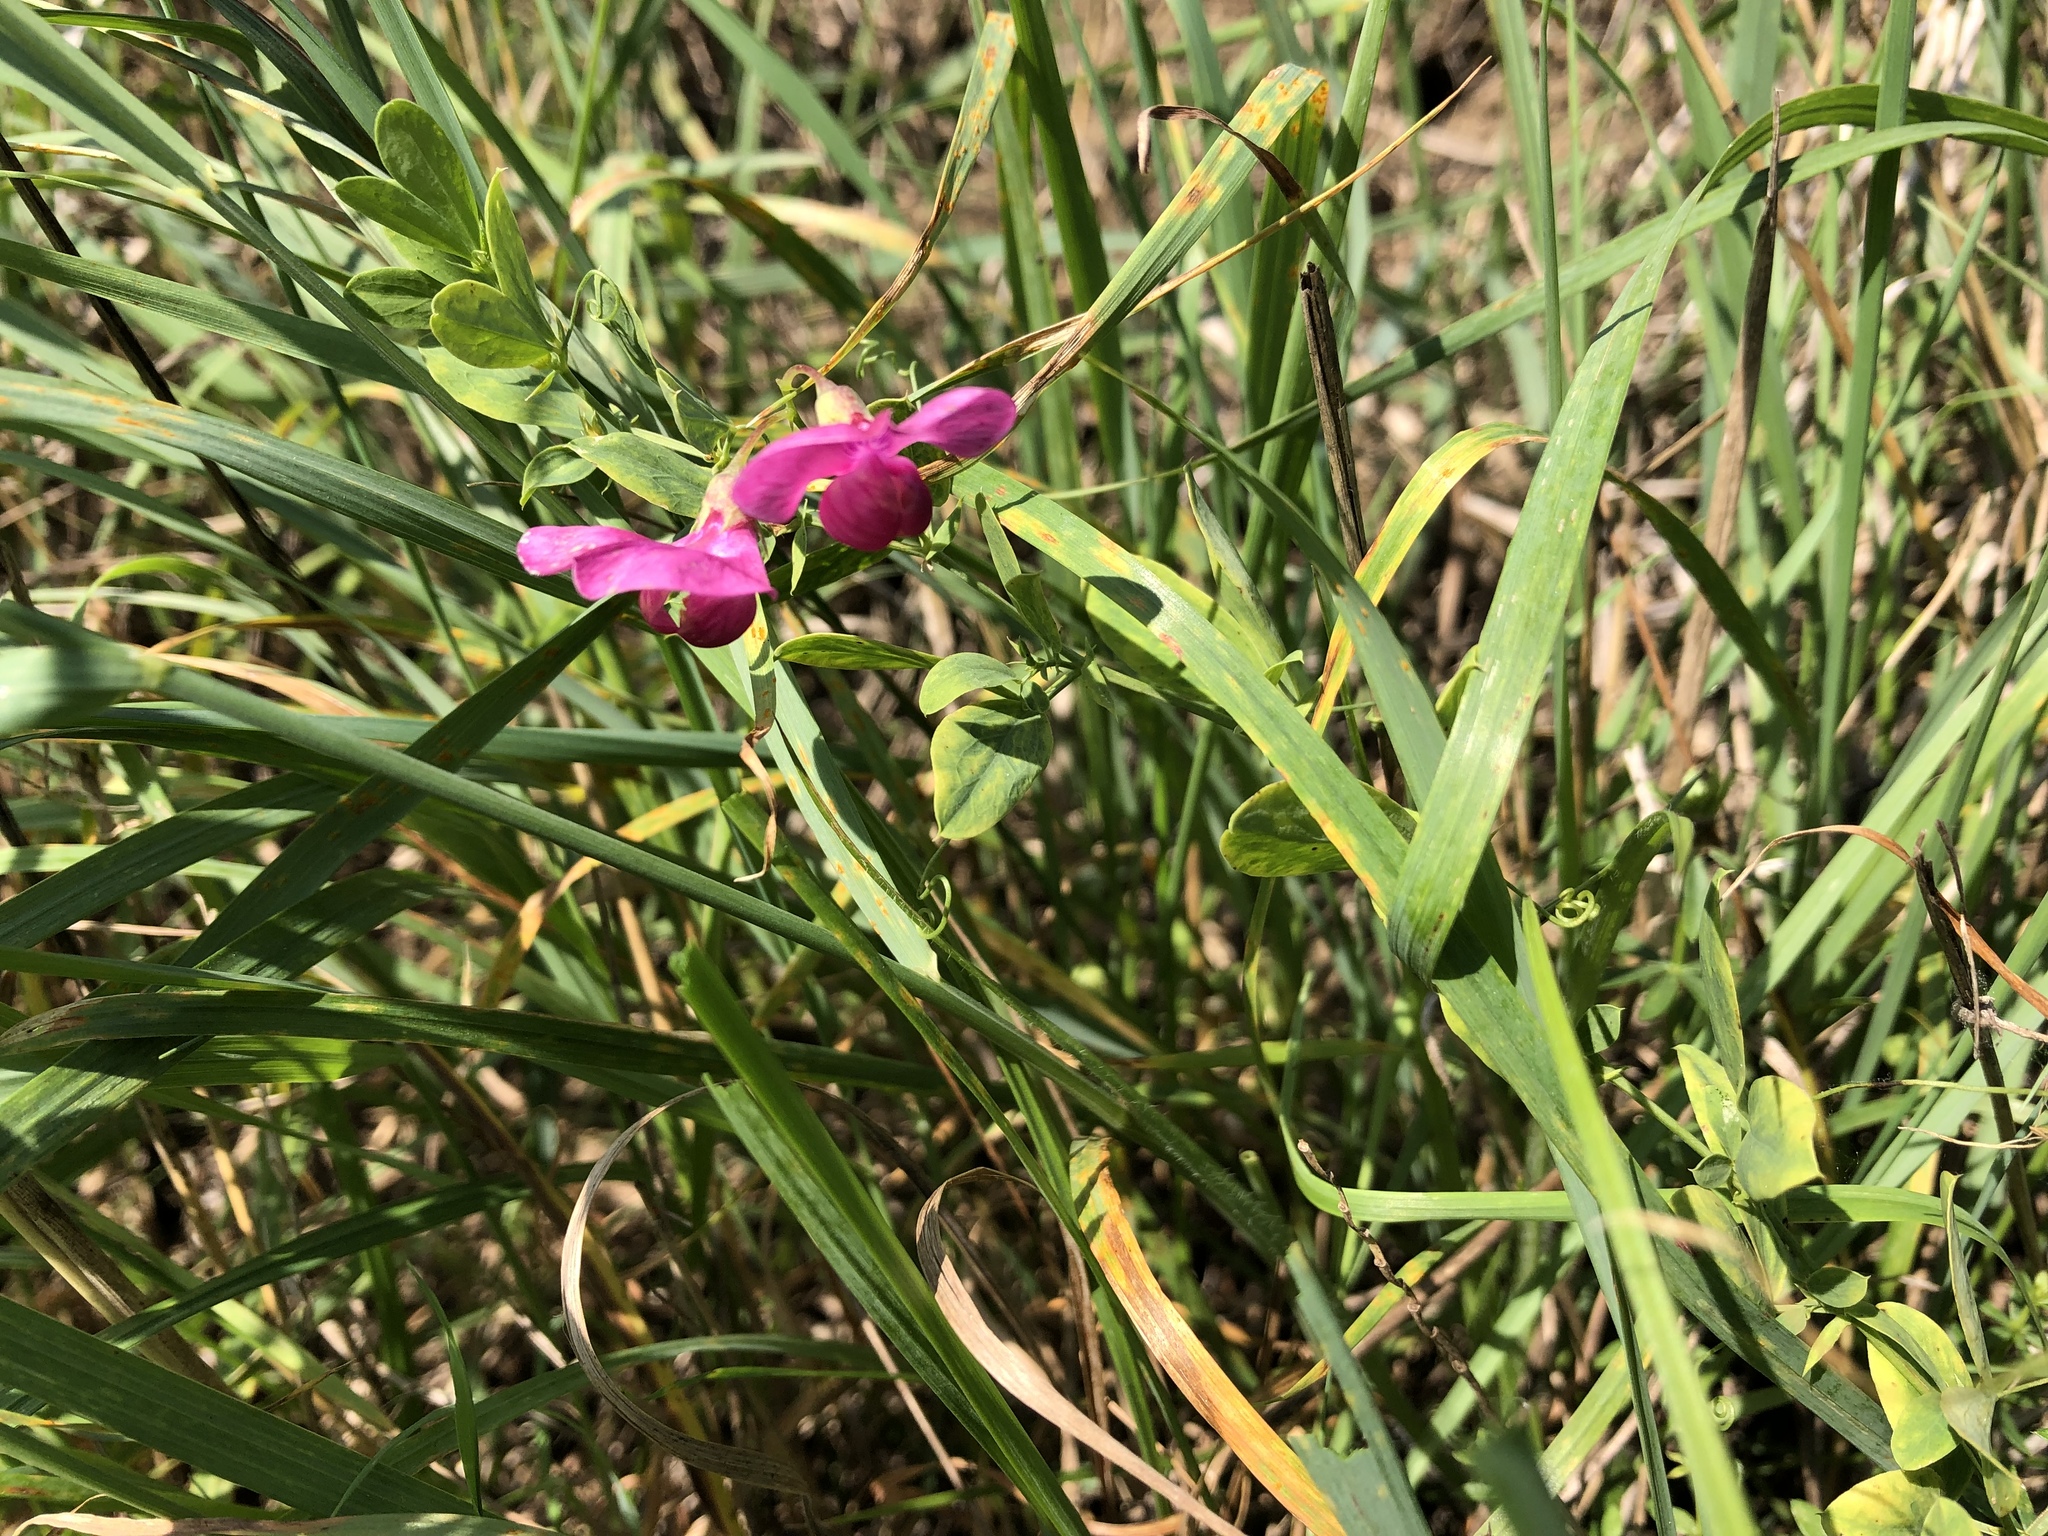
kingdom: Plantae
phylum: Tracheophyta
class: Magnoliopsida
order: Fabales
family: Fabaceae
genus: Lathyrus
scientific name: Lathyrus tuberosus
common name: Tuberous pea
